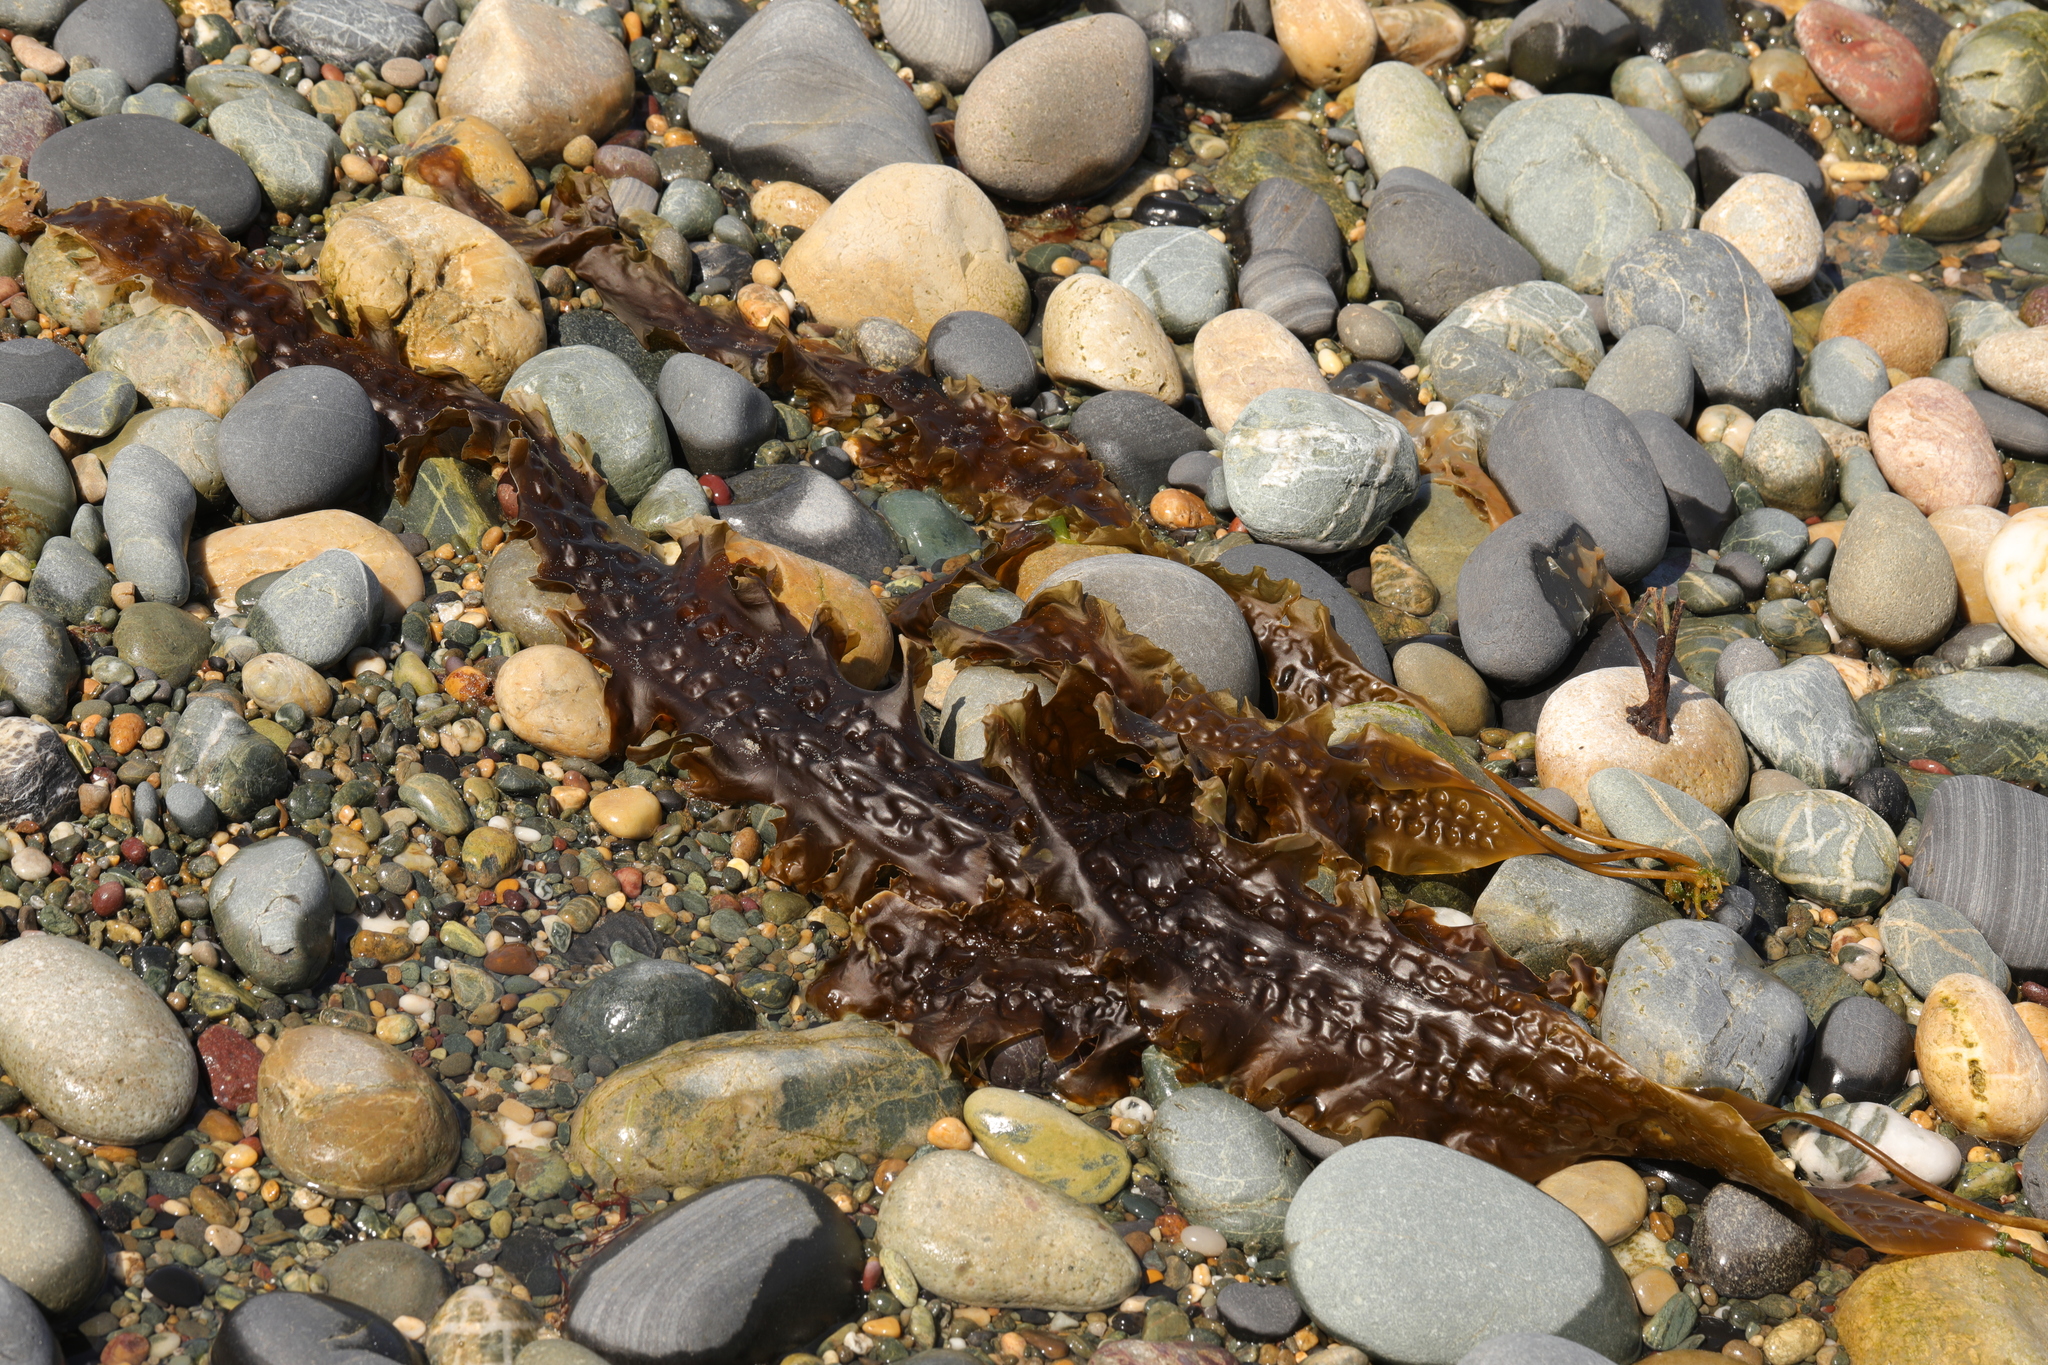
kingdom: Chromista
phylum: Ochrophyta
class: Phaeophyceae
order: Laminariales
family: Laminariaceae
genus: Saccharina
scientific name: Saccharina latissima
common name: Poor man's weather glass
